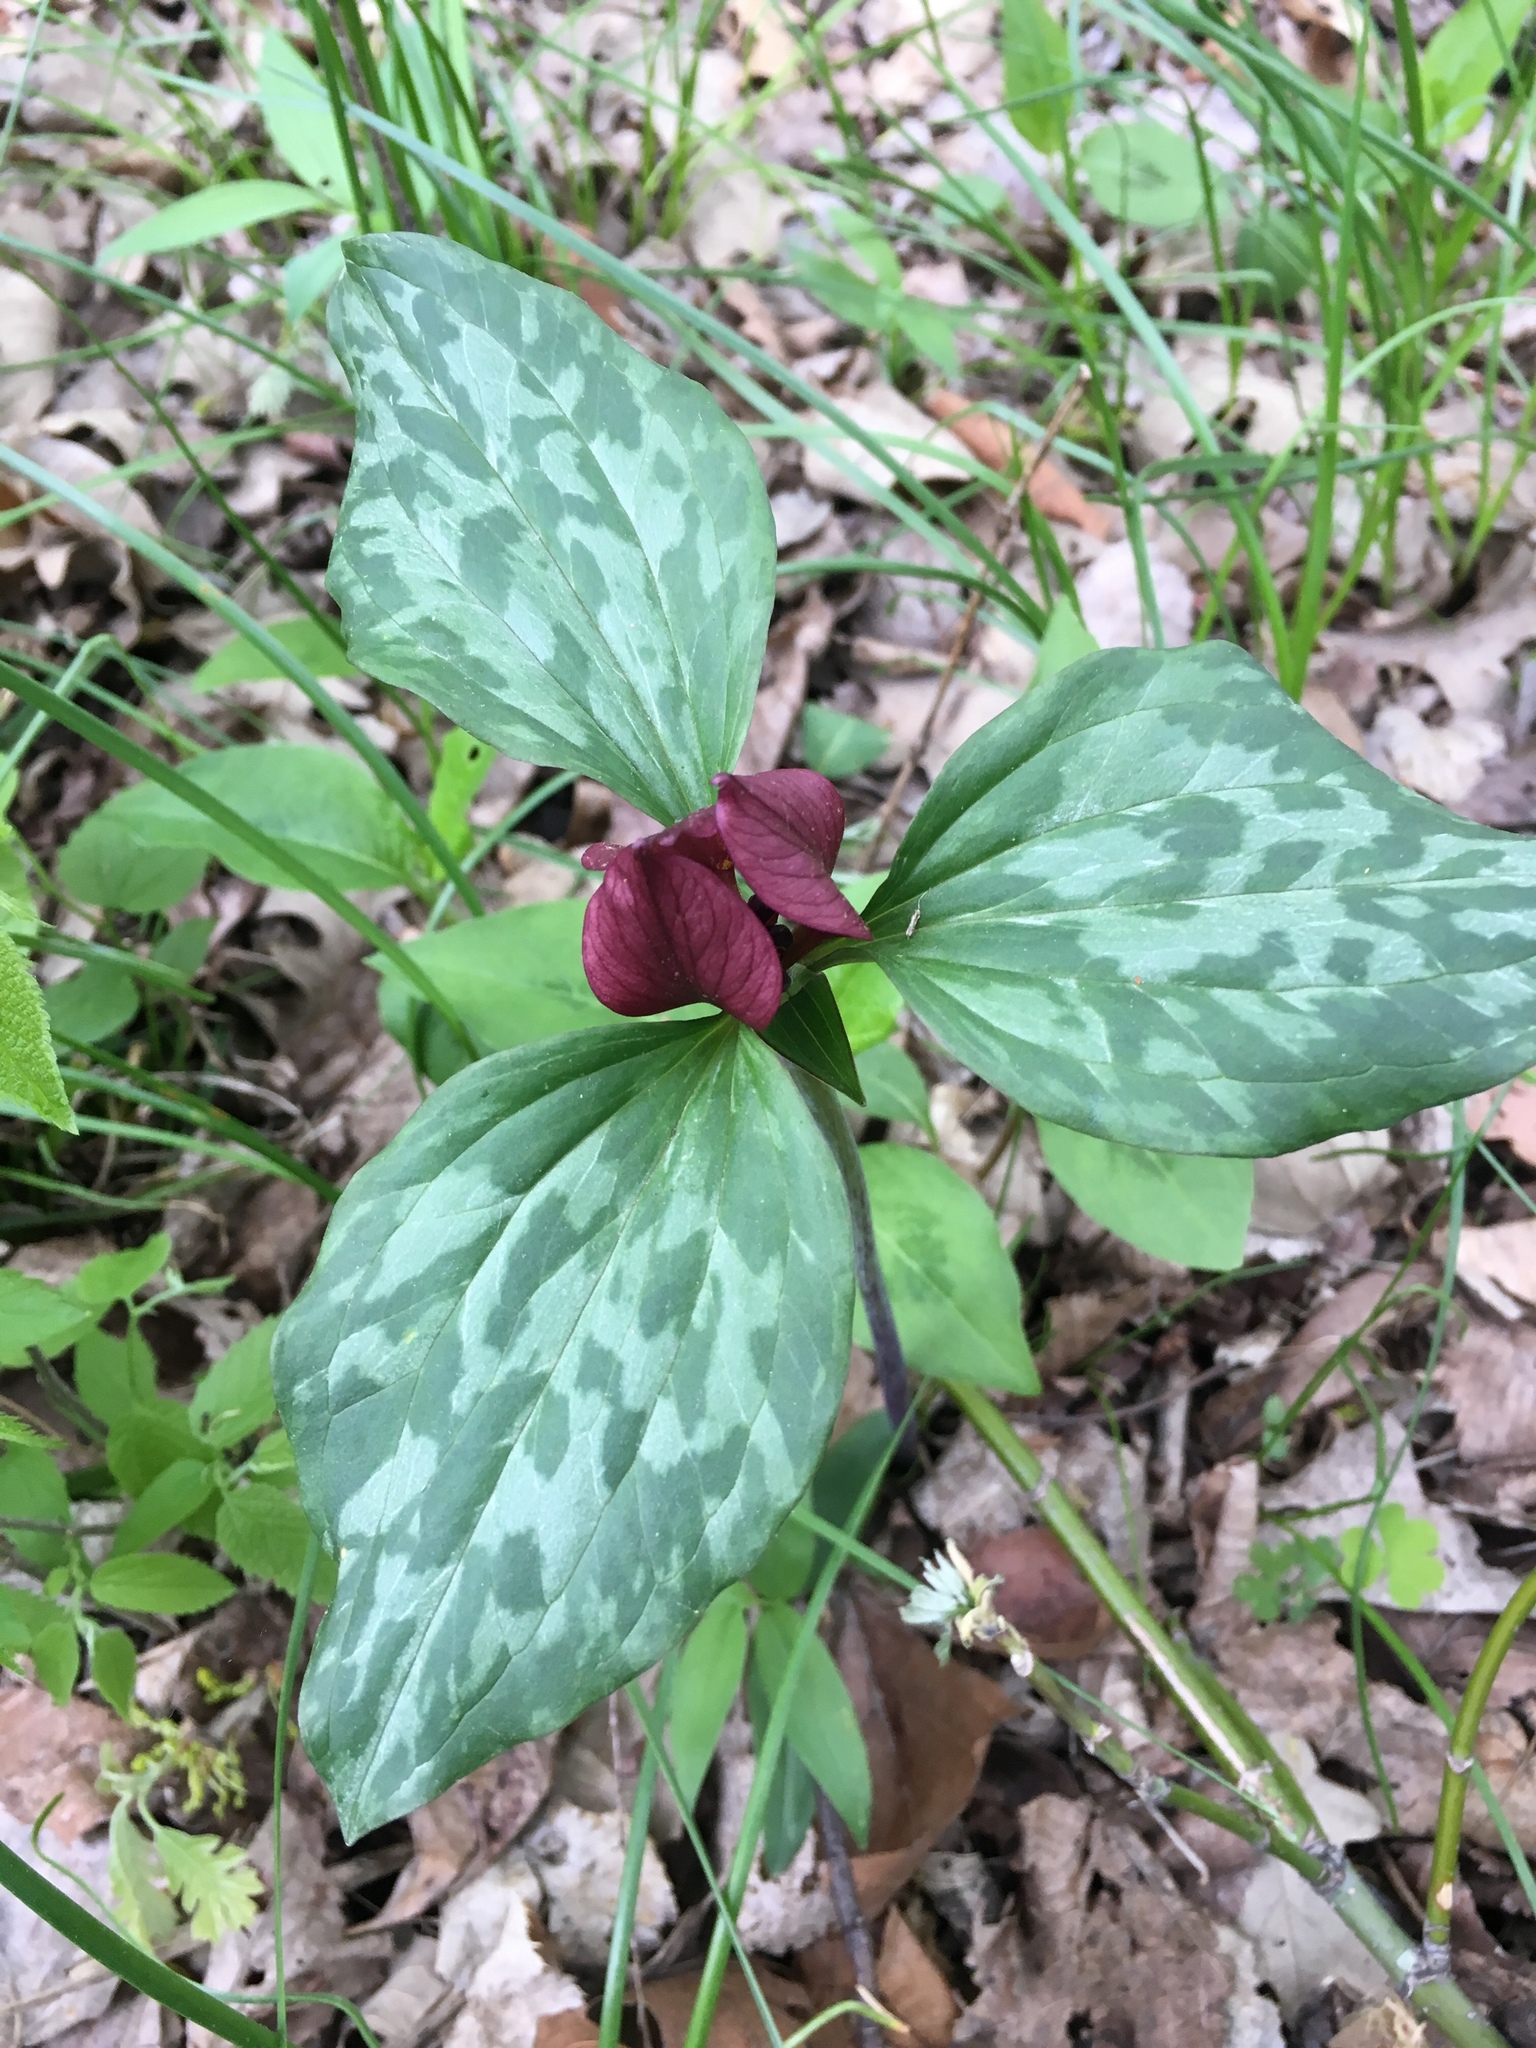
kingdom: Plantae
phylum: Tracheophyta
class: Liliopsida
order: Liliales
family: Melanthiaceae
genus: Trillium
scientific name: Trillium recurvatum
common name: Bloody butcher
